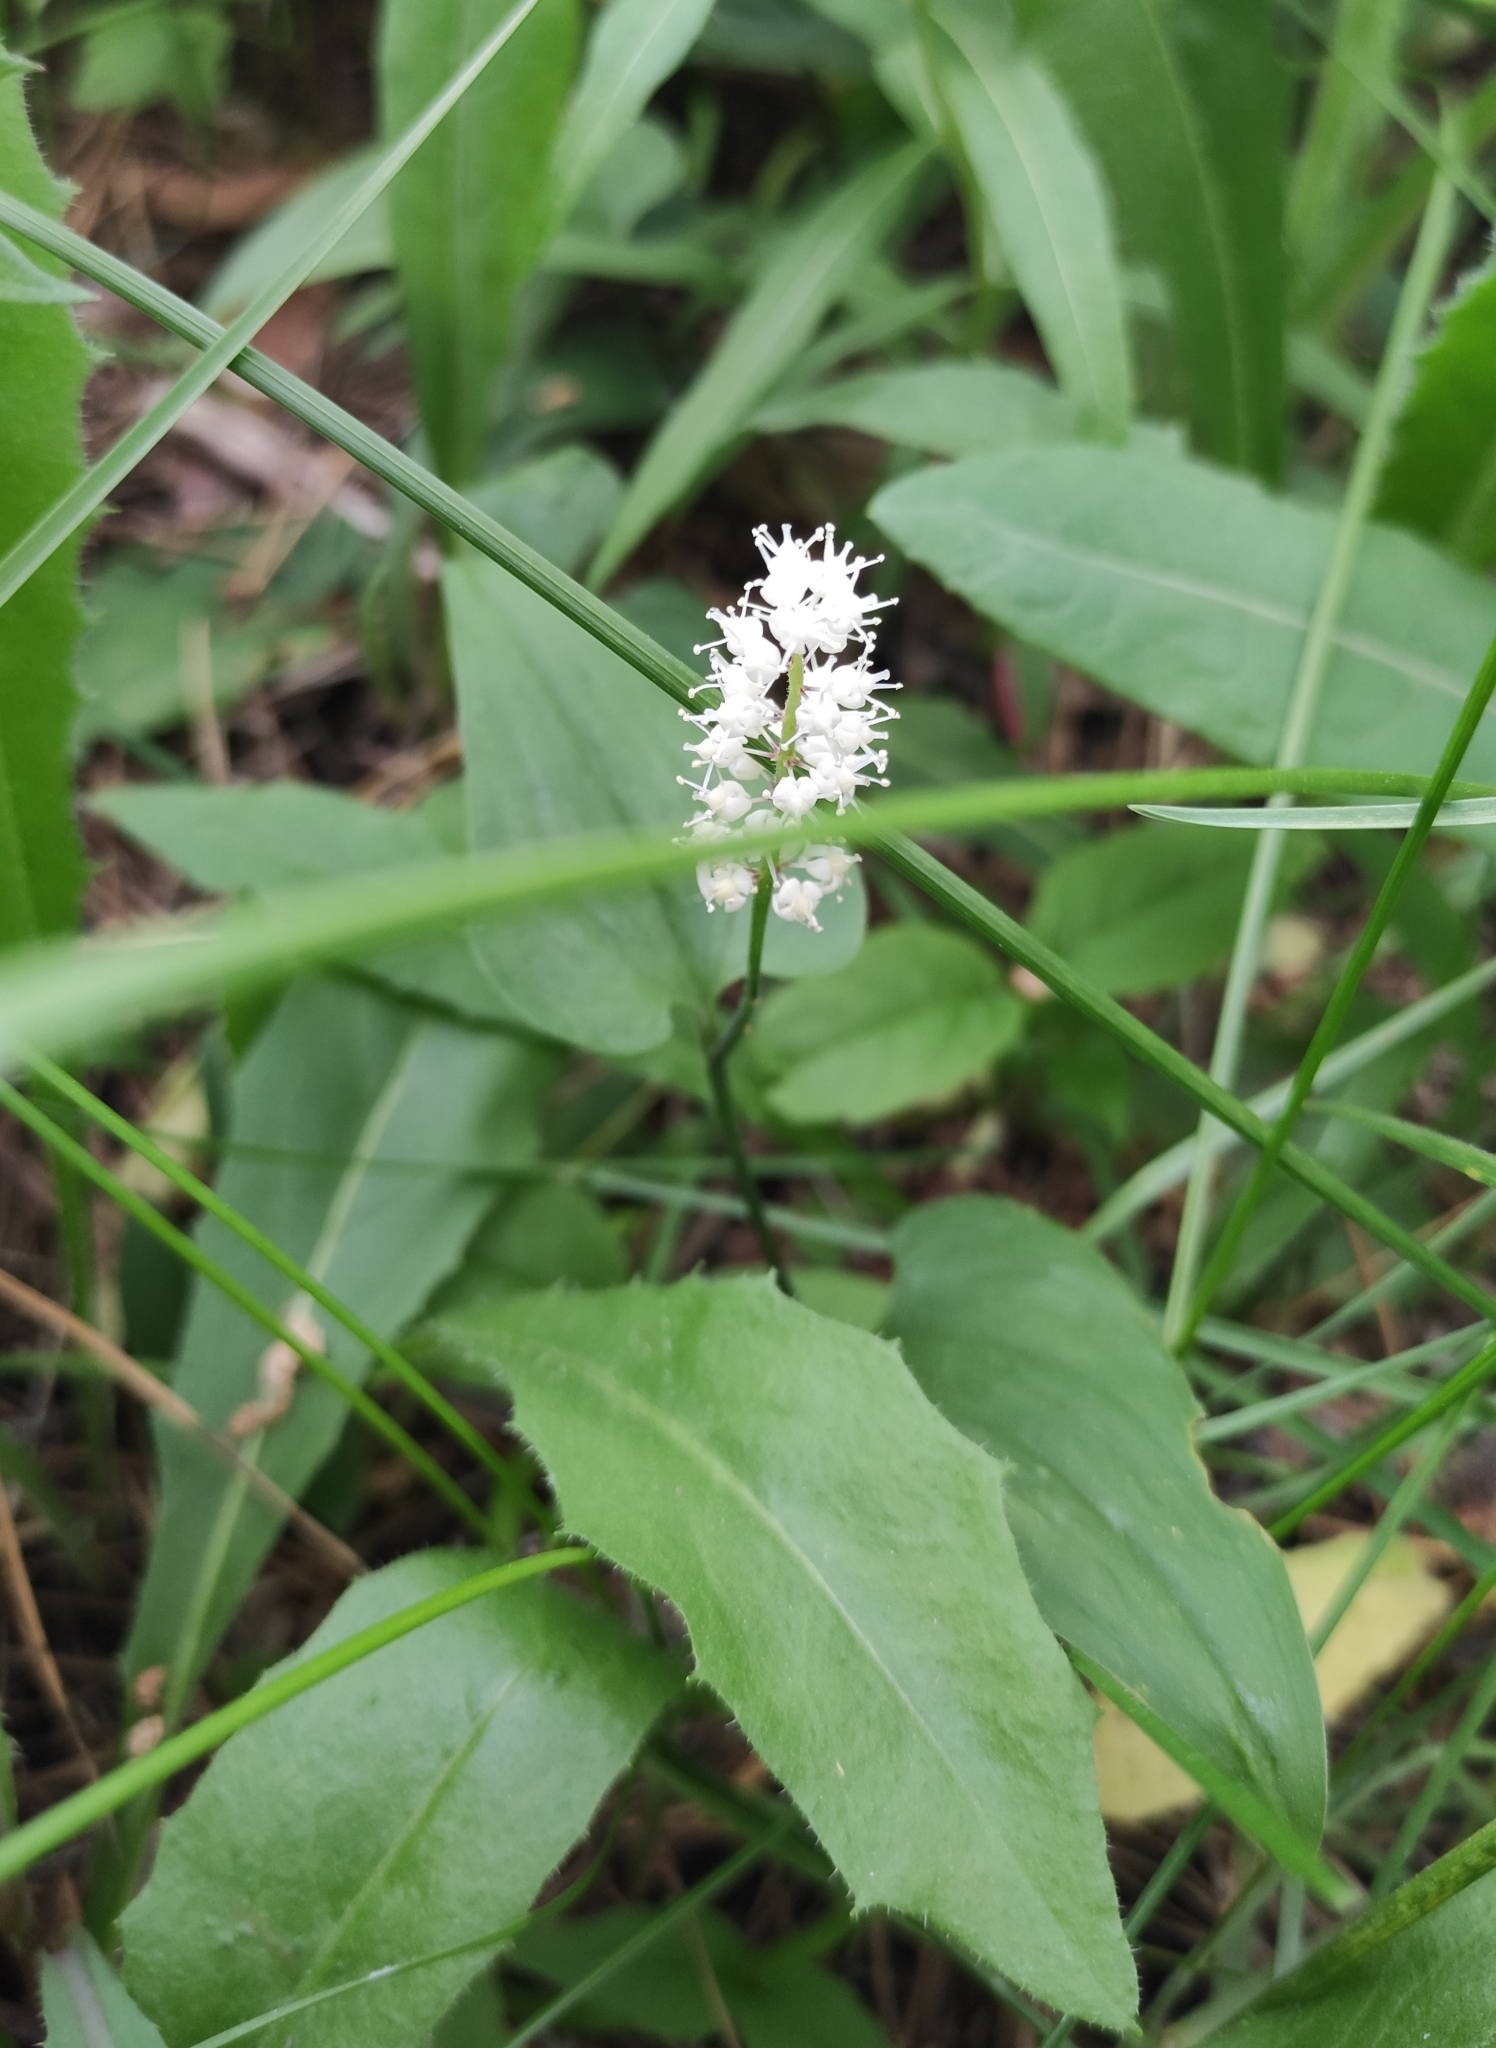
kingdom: Plantae
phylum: Tracheophyta
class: Liliopsida
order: Asparagales
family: Asparagaceae
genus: Maianthemum
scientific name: Maianthemum bifolium
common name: May lily
